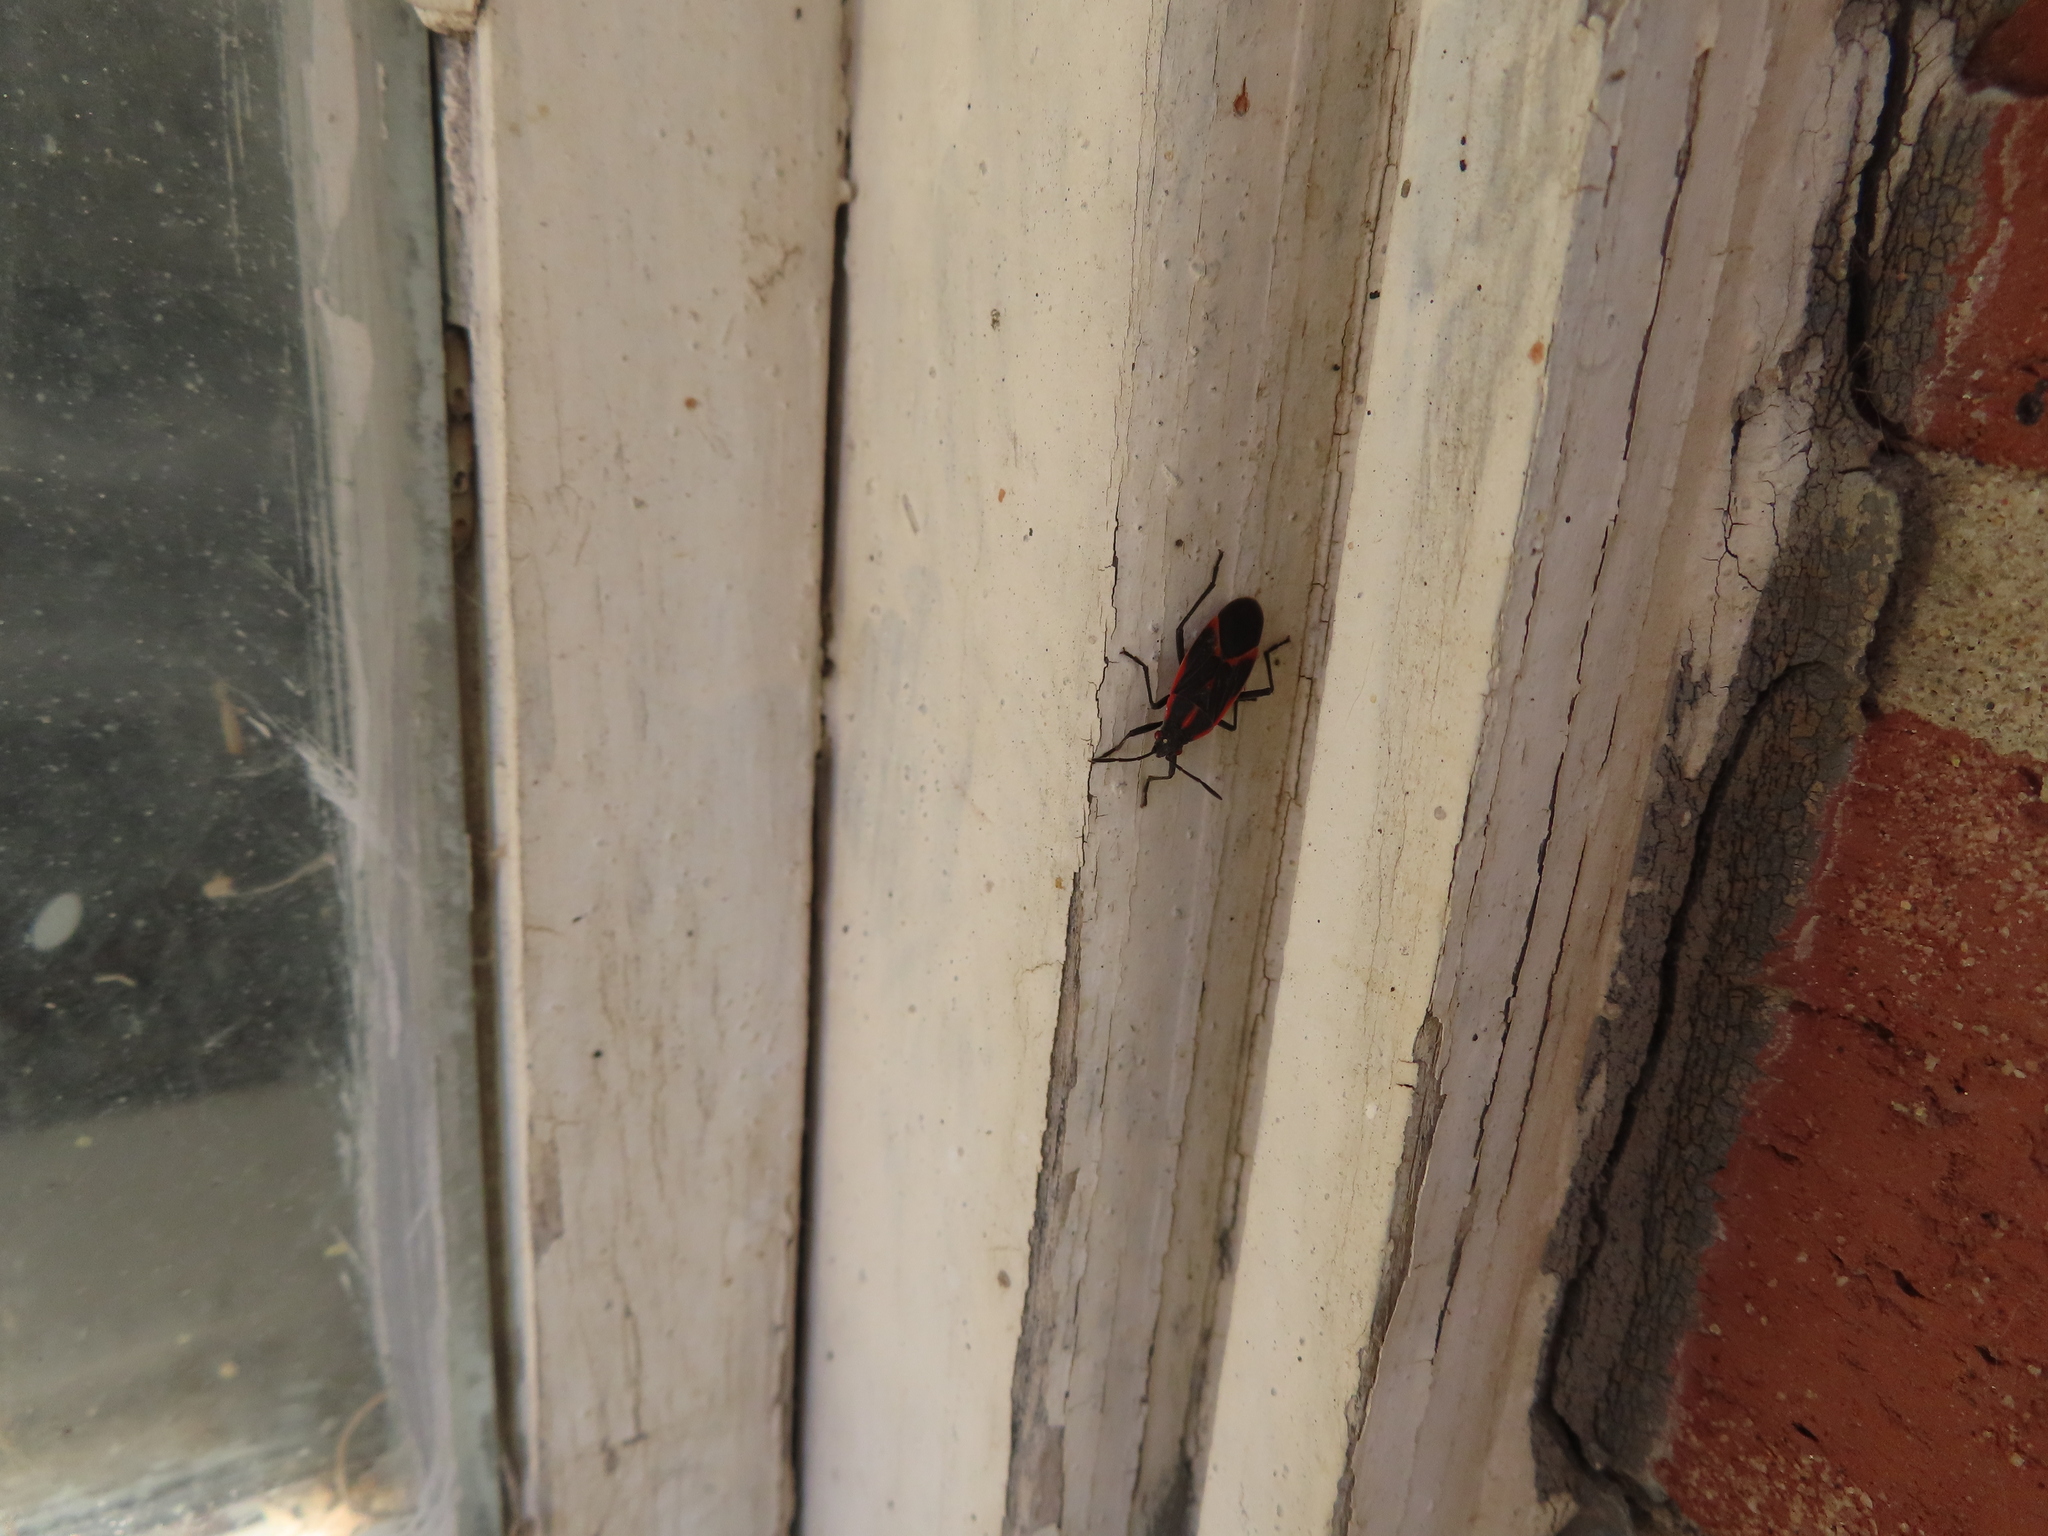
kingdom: Animalia
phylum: Arthropoda
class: Insecta
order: Hemiptera
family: Rhopalidae
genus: Boisea
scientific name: Boisea trivittata
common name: Boxelder bug
